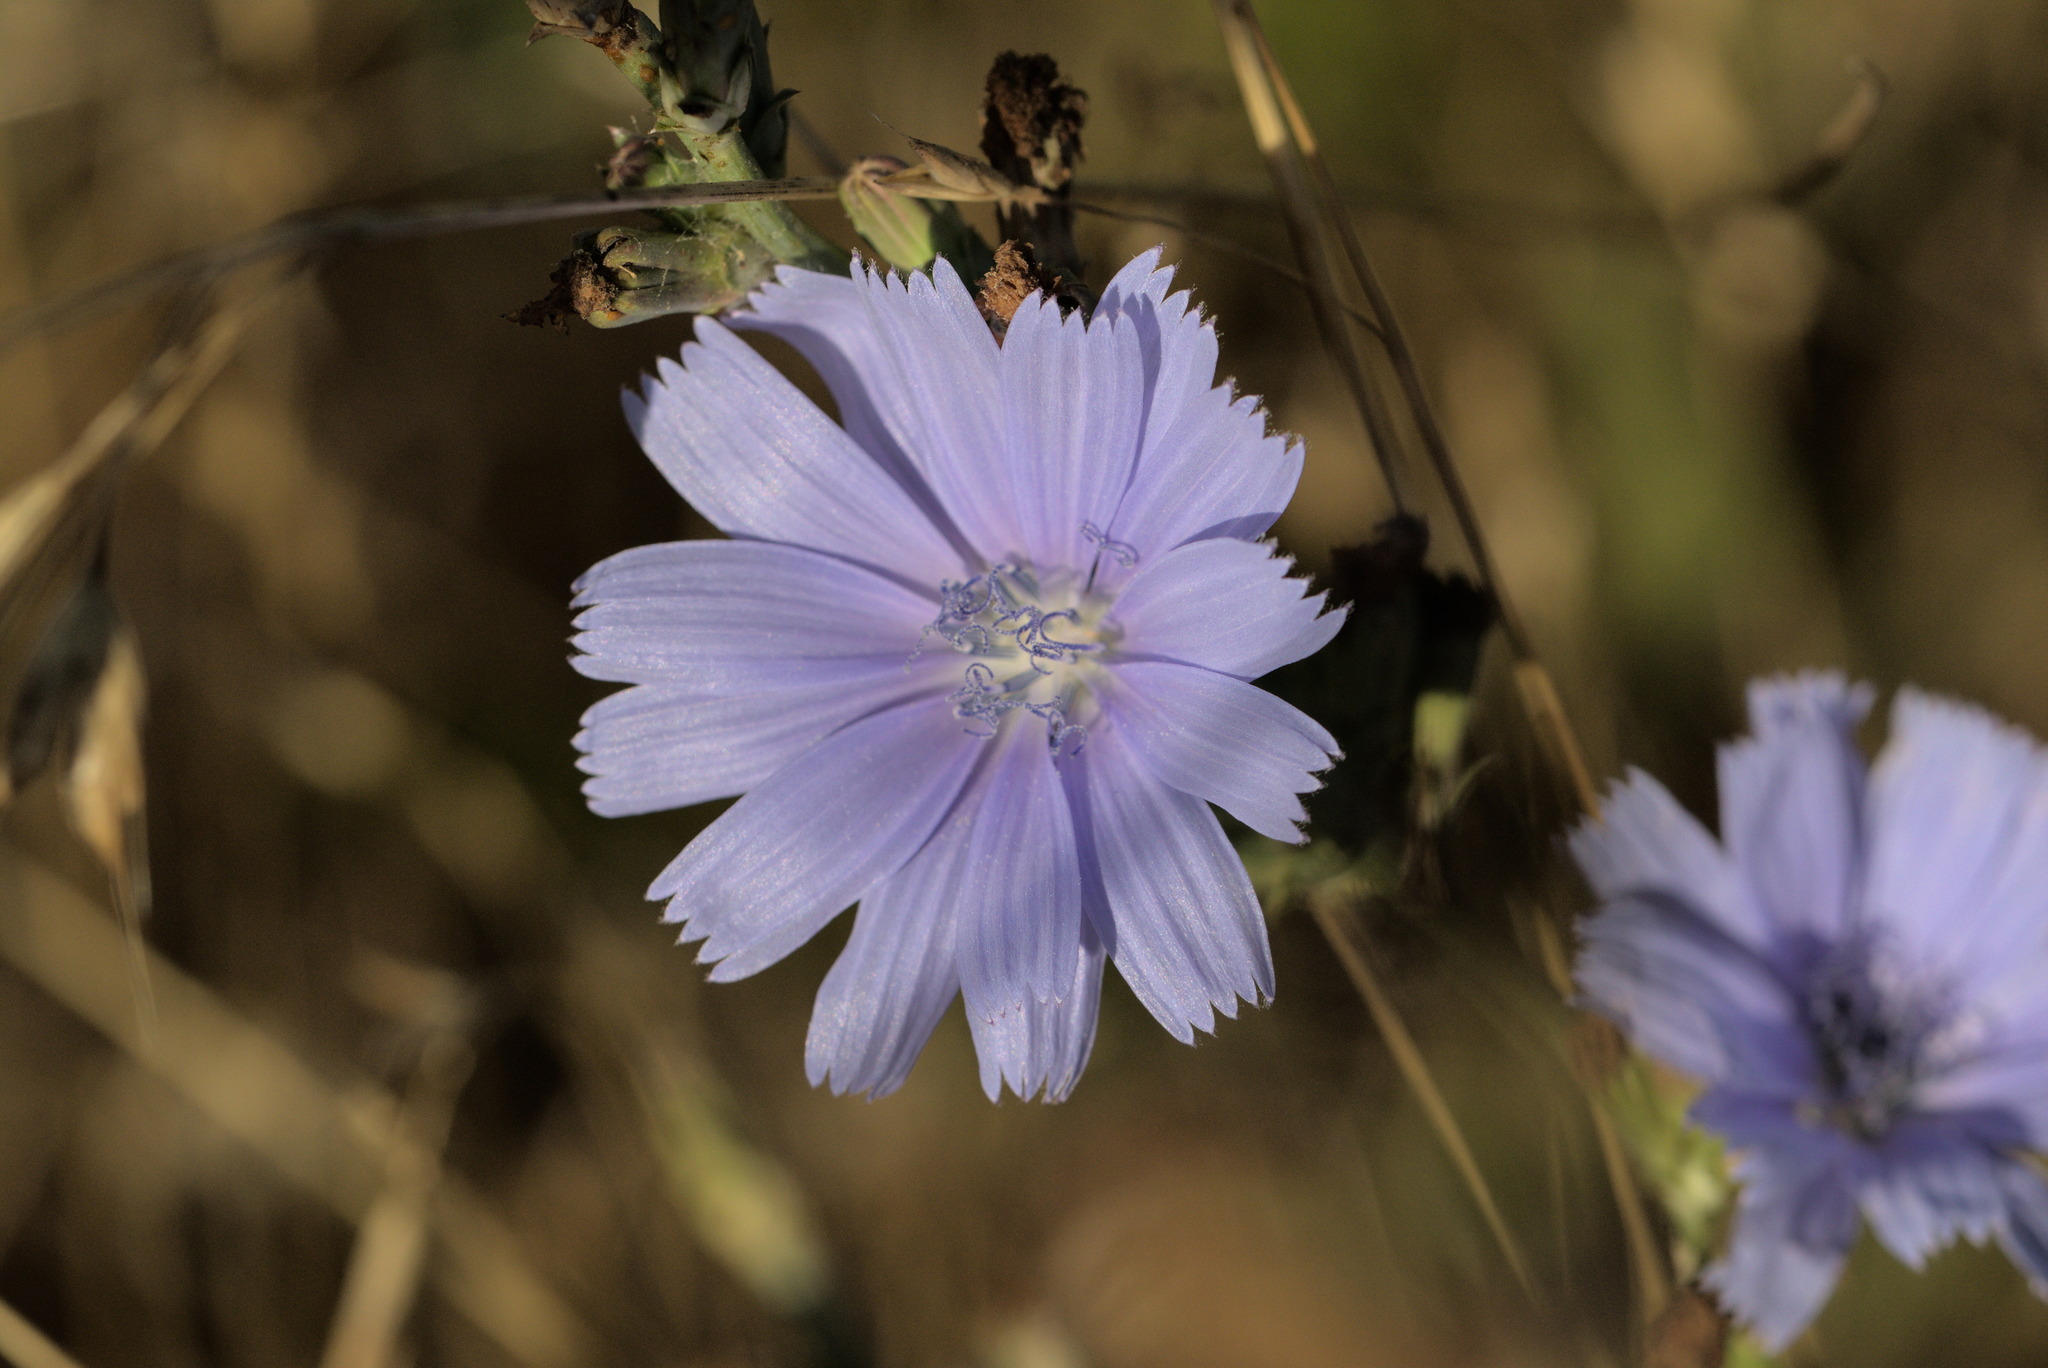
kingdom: Plantae
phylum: Tracheophyta
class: Magnoliopsida
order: Asterales
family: Asteraceae
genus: Cichorium
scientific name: Cichorium intybus
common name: Chicory
